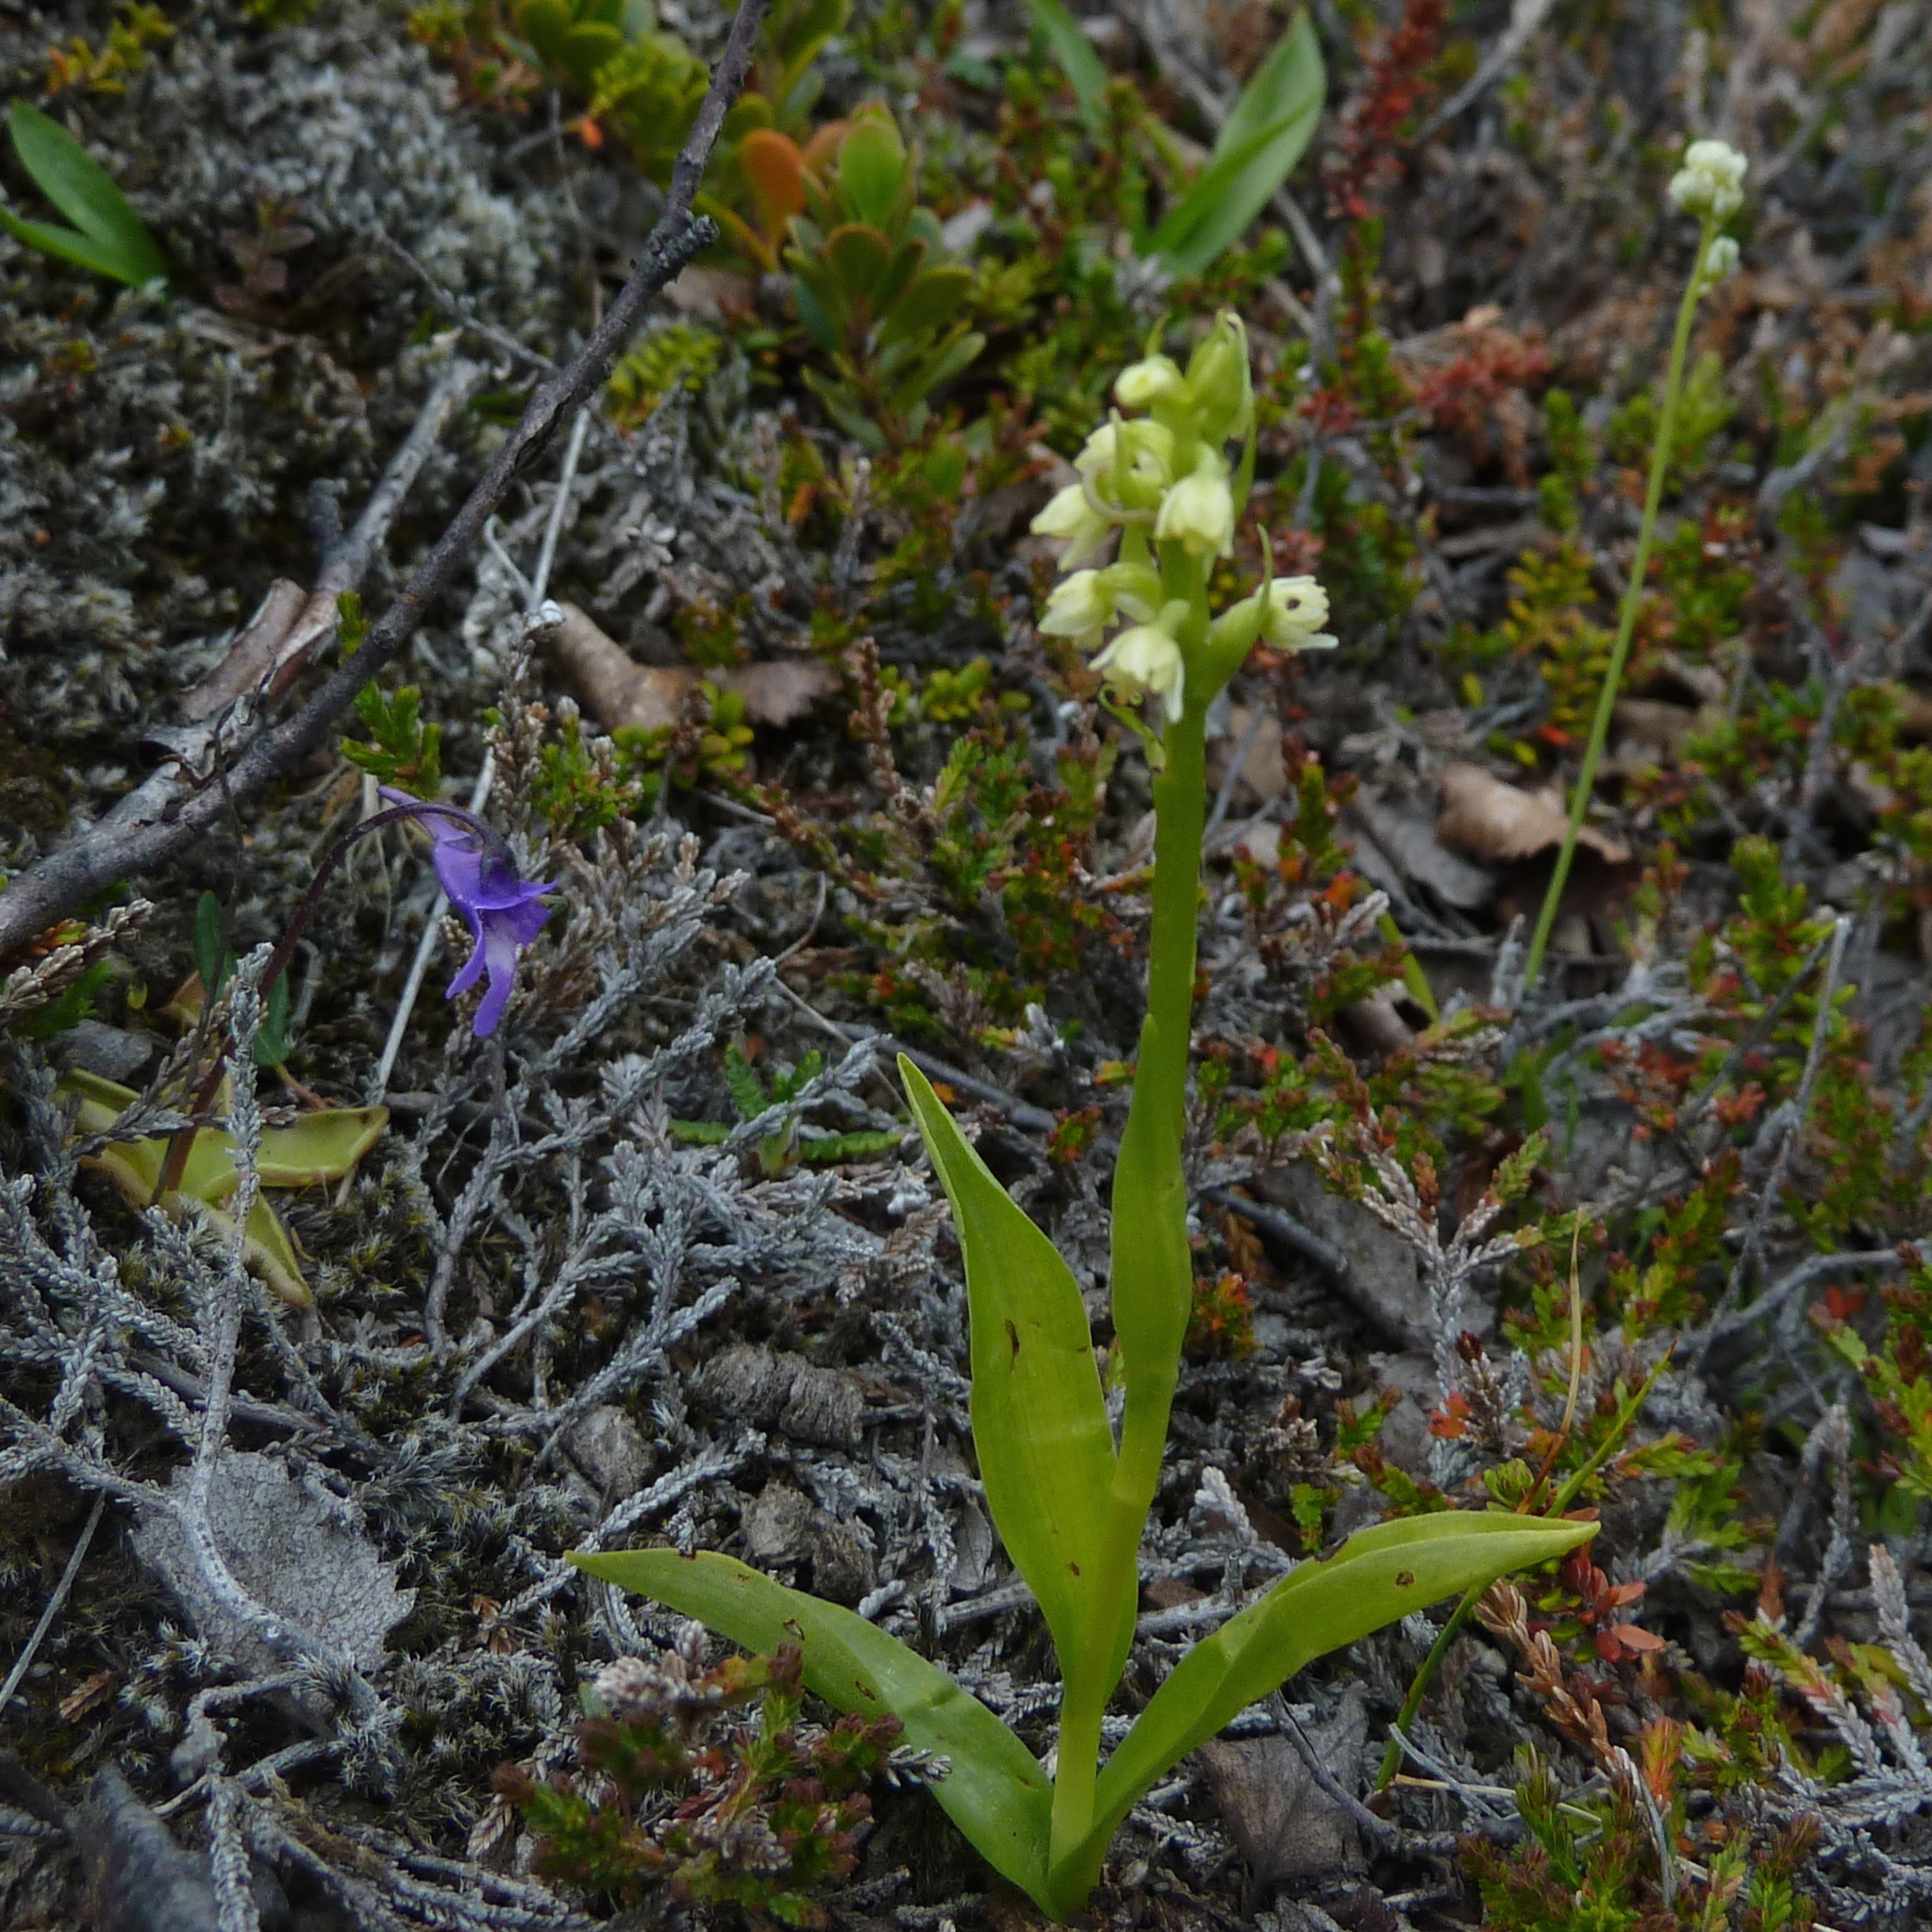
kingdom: Plantae
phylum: Tracheophyta
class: Liliopsida
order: Asparagales
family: Orchidaceae
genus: Pseudorchis
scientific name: Pseudorchis albida
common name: Small-white orchid
